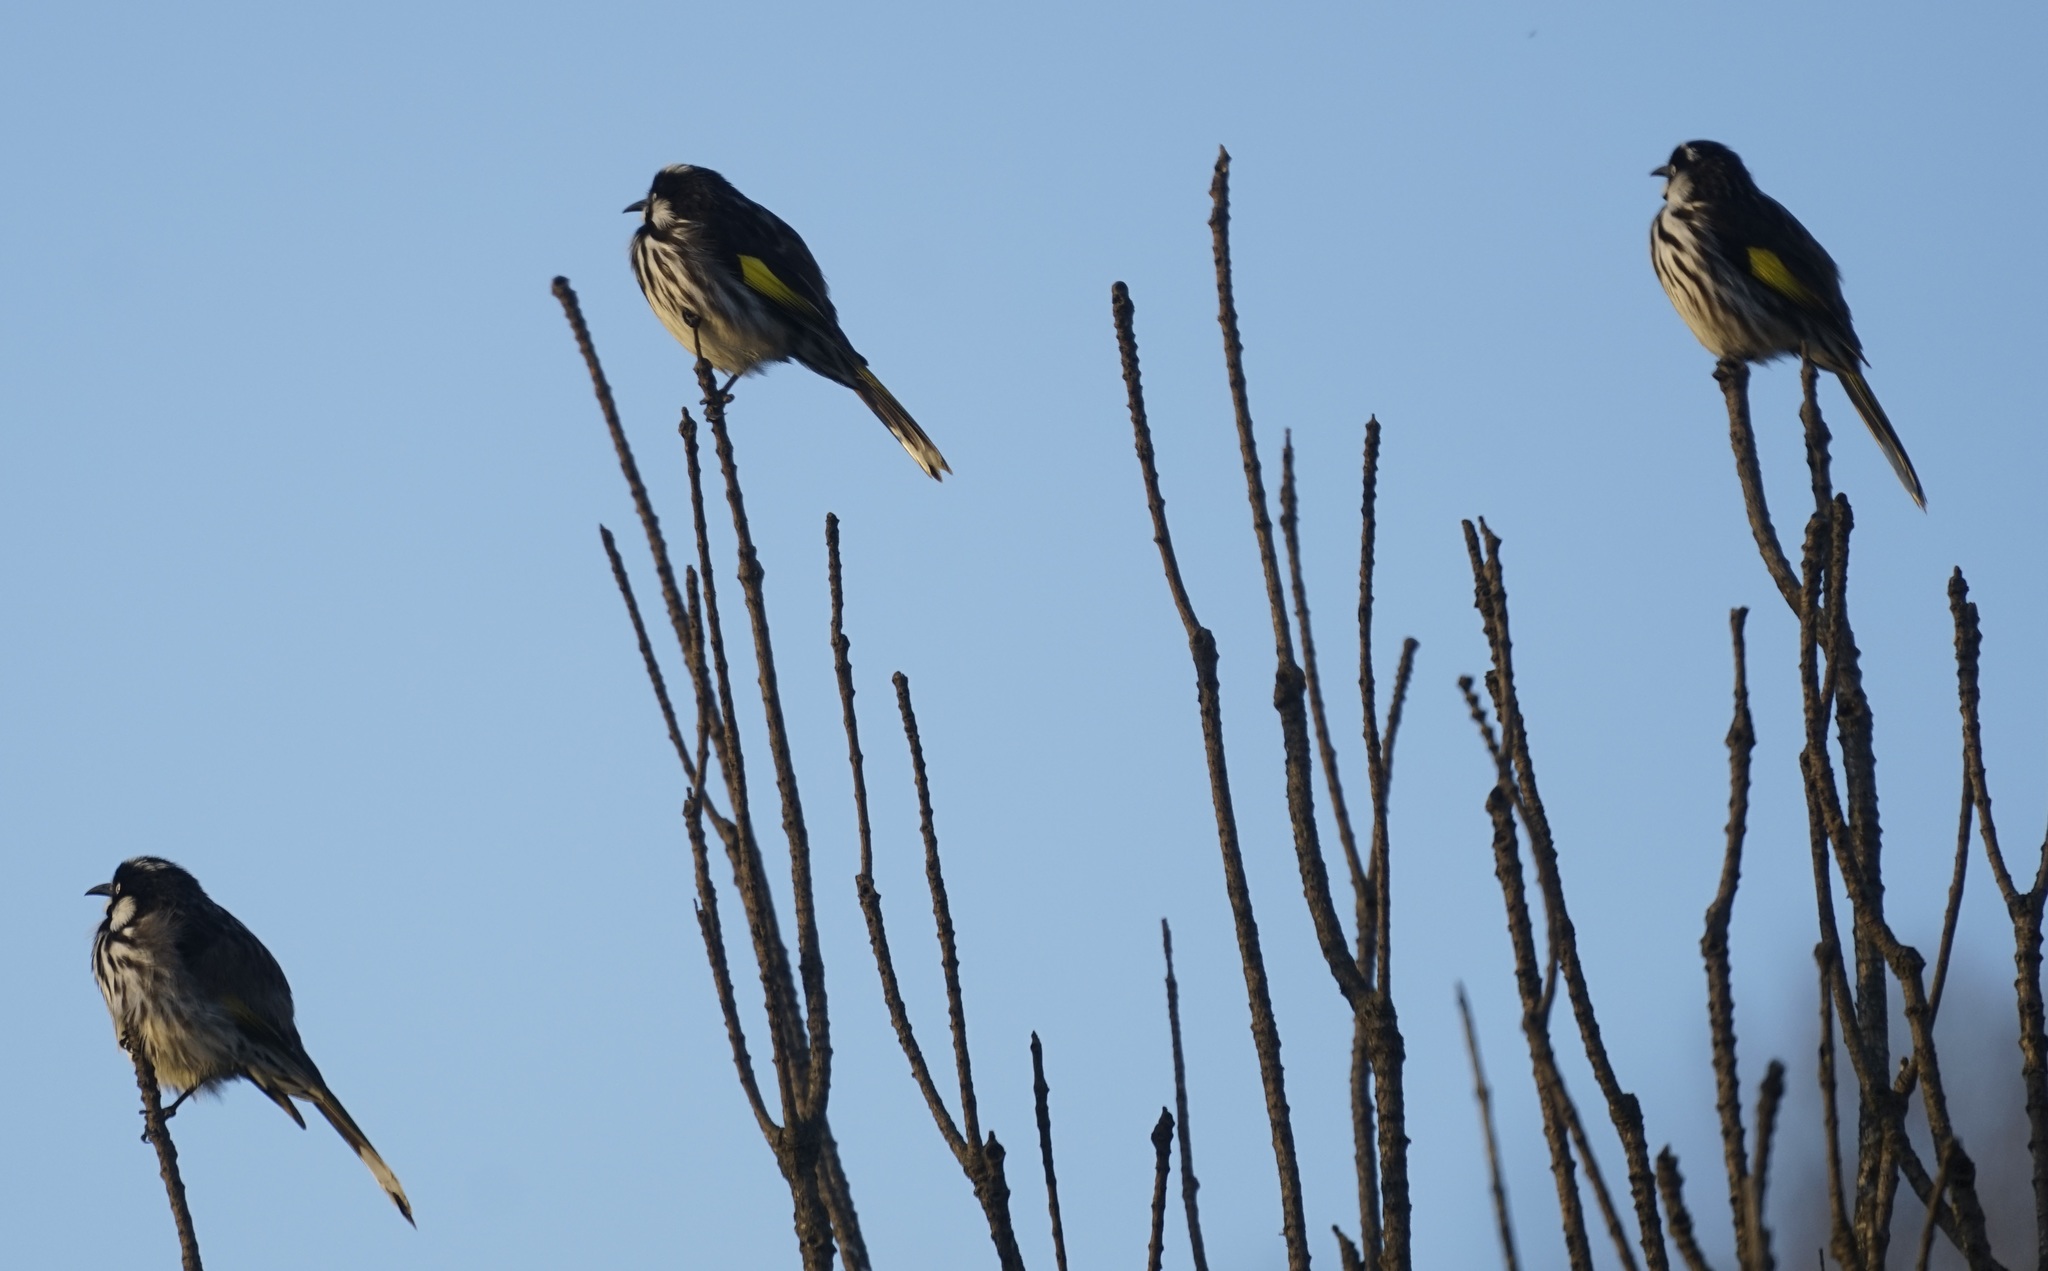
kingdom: Animalia
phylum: Chordata
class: Aves
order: Passeriformes
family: Meliphagidae
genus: Phylidonyris
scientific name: Phylidonyris novaehollandiae
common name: New holland honeyeater
